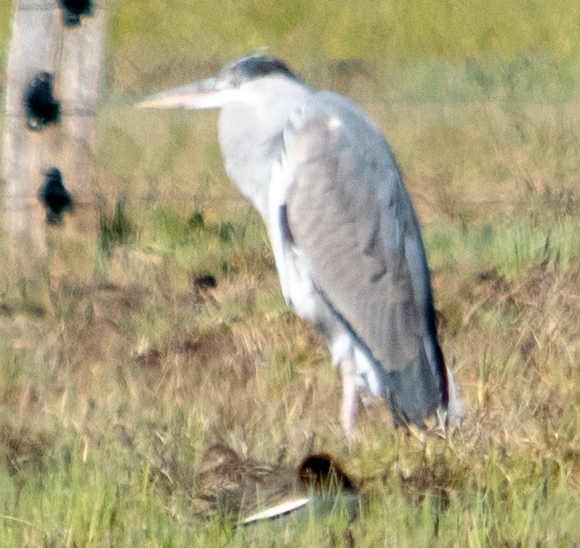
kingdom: Animalia
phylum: Chordata
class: Aves
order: Pelecaniformes
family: Ardeidae
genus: Ardea
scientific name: Ardea cinerea
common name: Grey heron
